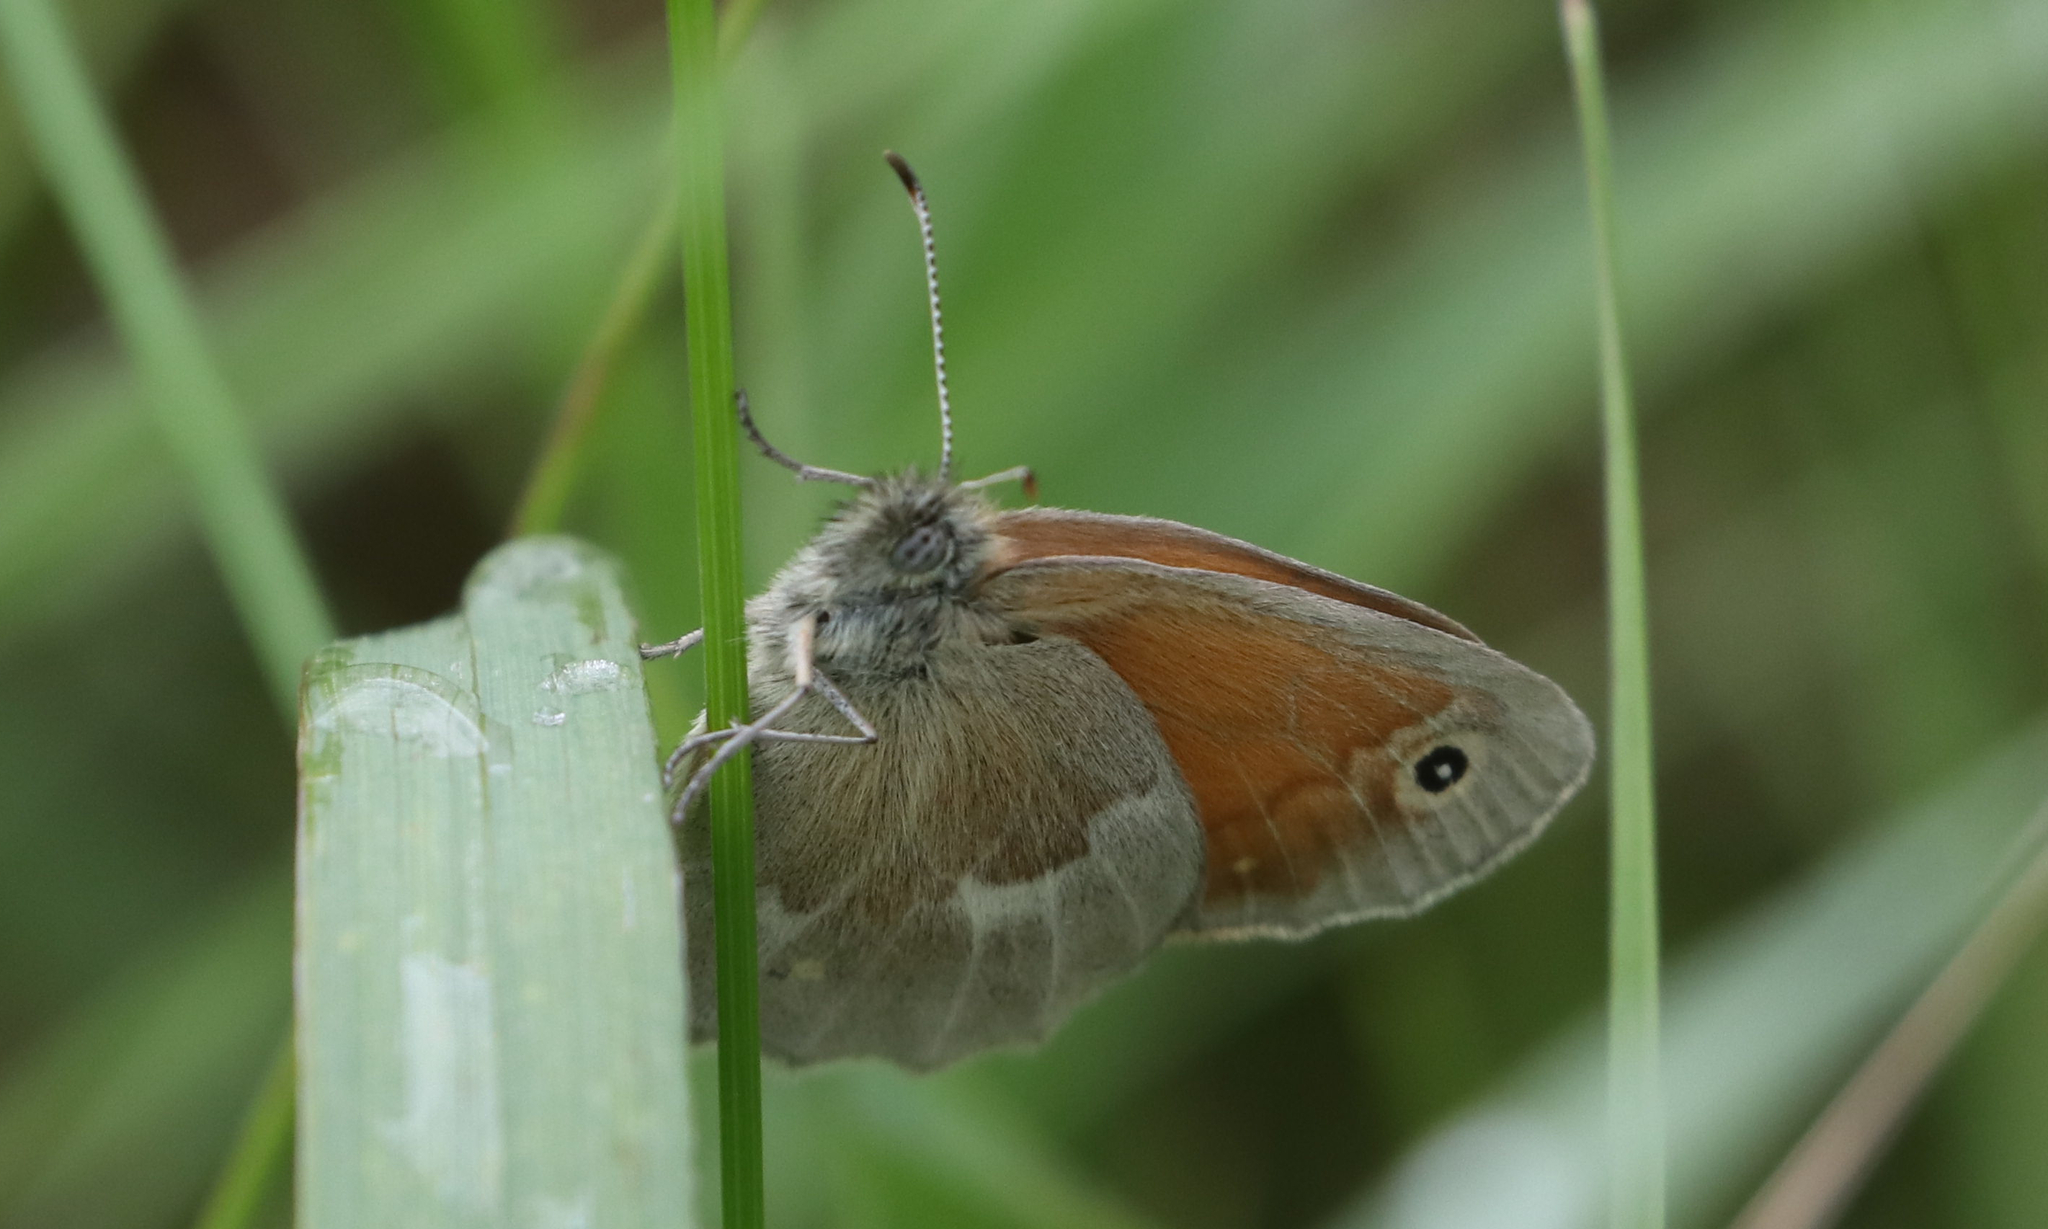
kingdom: Animalia
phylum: Arthropoda
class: Insecta
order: Lepidoptera
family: Nymphalidae
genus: Coenonympha
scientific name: Coenonympha california
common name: Common ringlet
